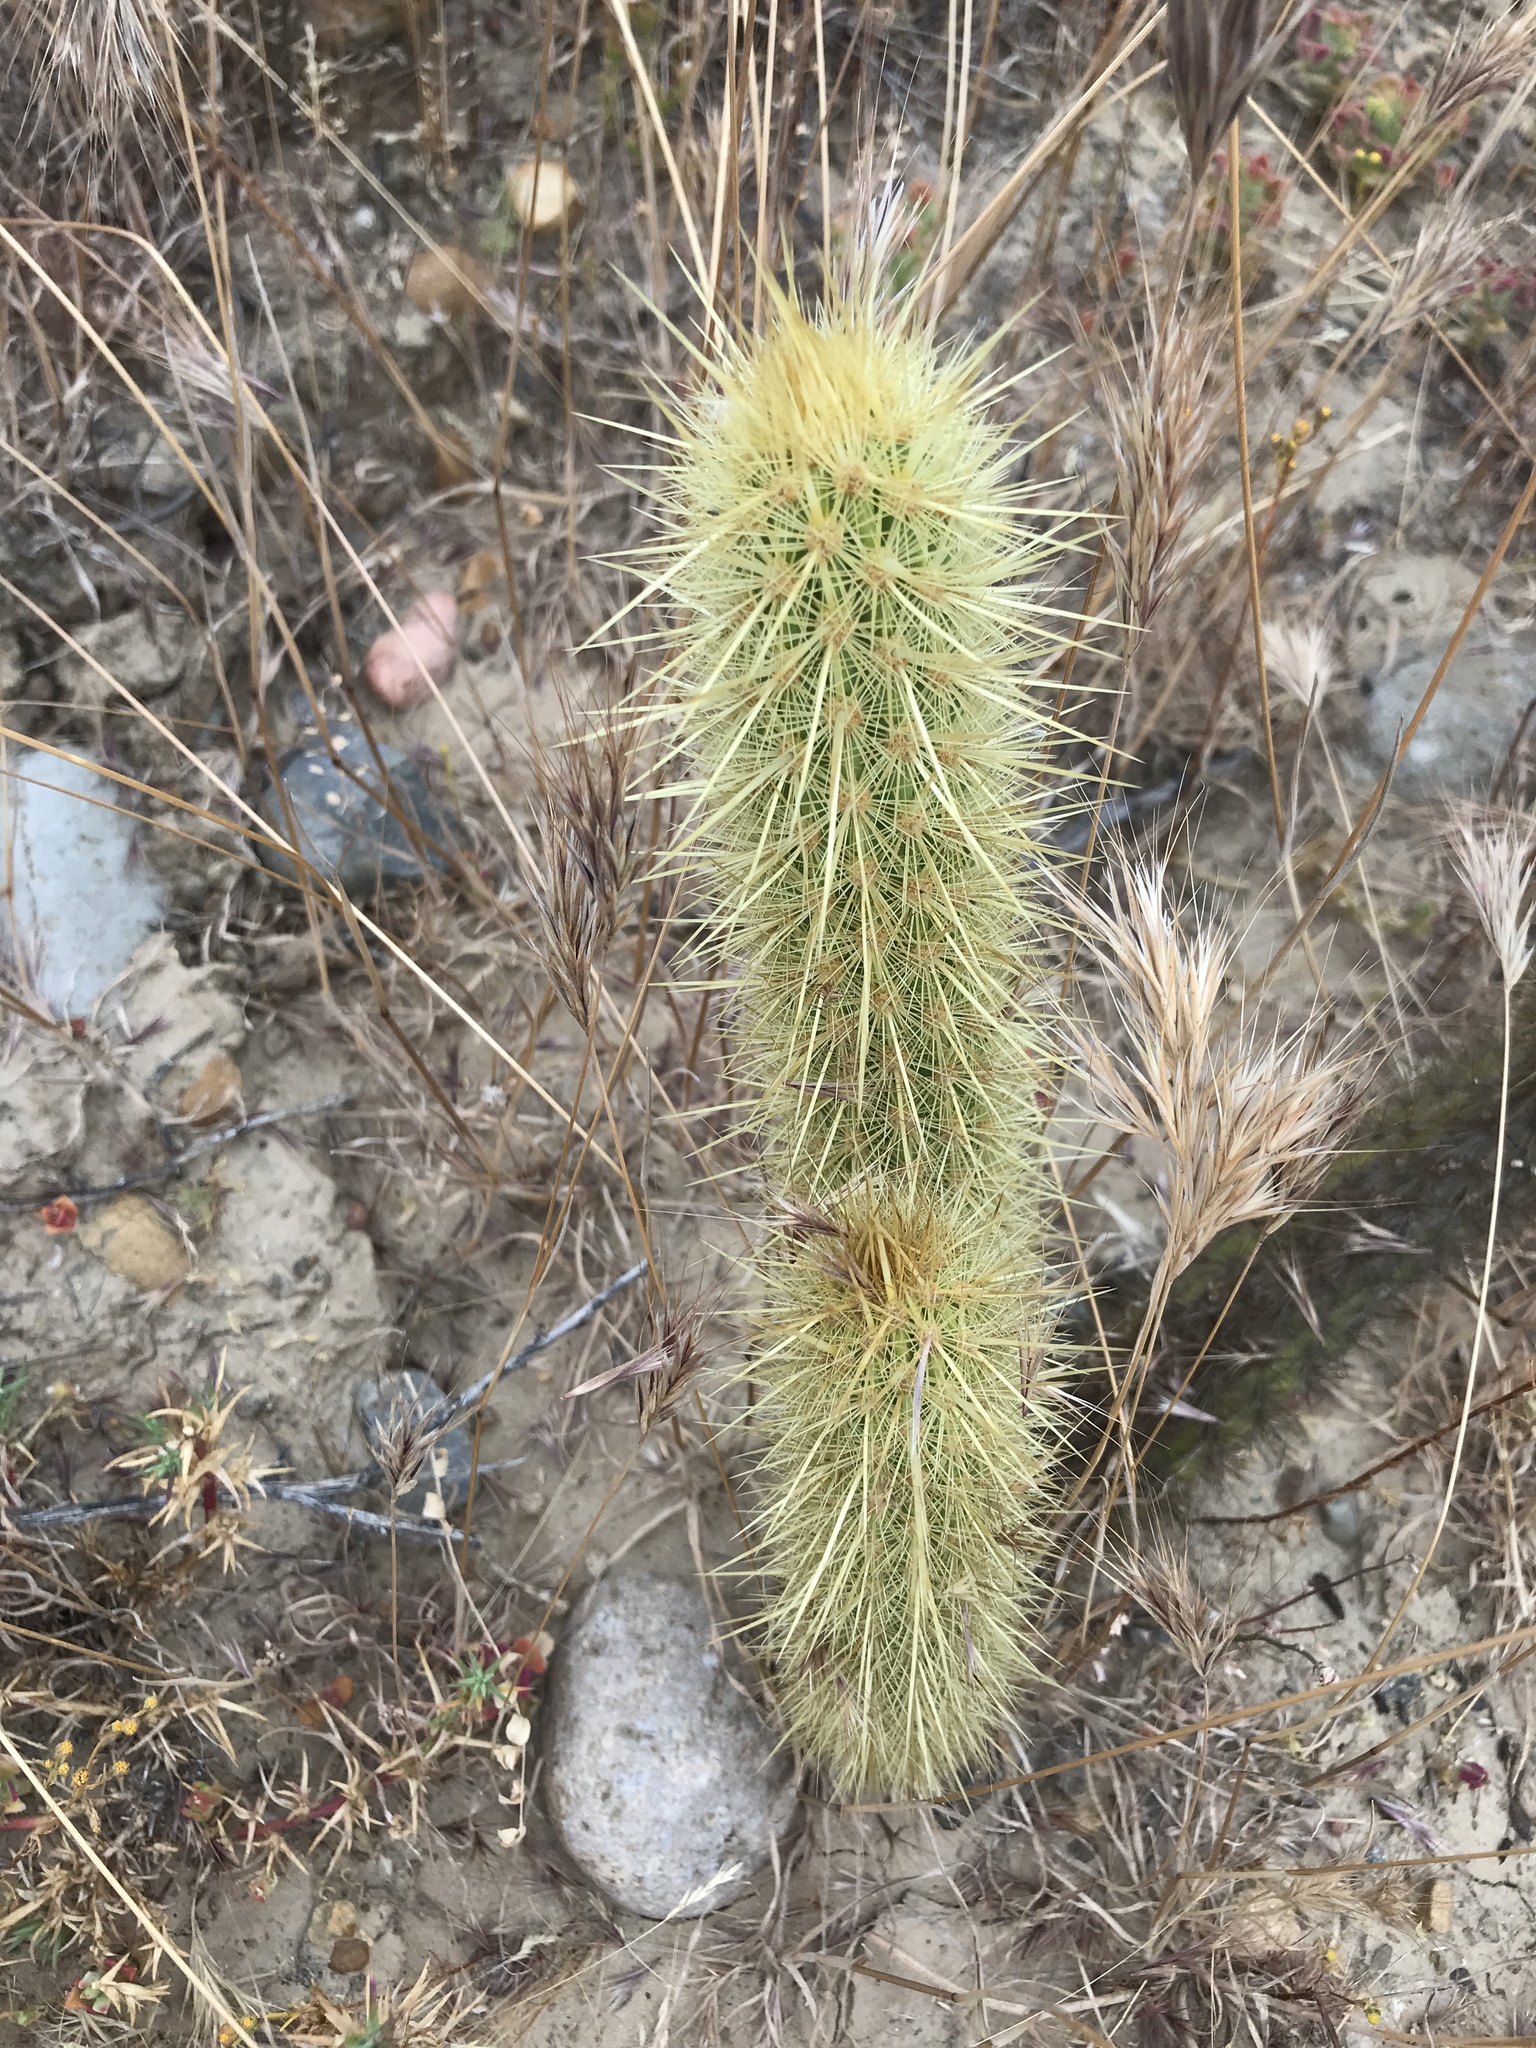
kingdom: Plantae
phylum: Tracheophyta
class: Magnoliopsida
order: Caryophyllales
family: Cactaceae
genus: Bergerocactus
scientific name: Bergerocactus emoryi
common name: Golden snakecactus
